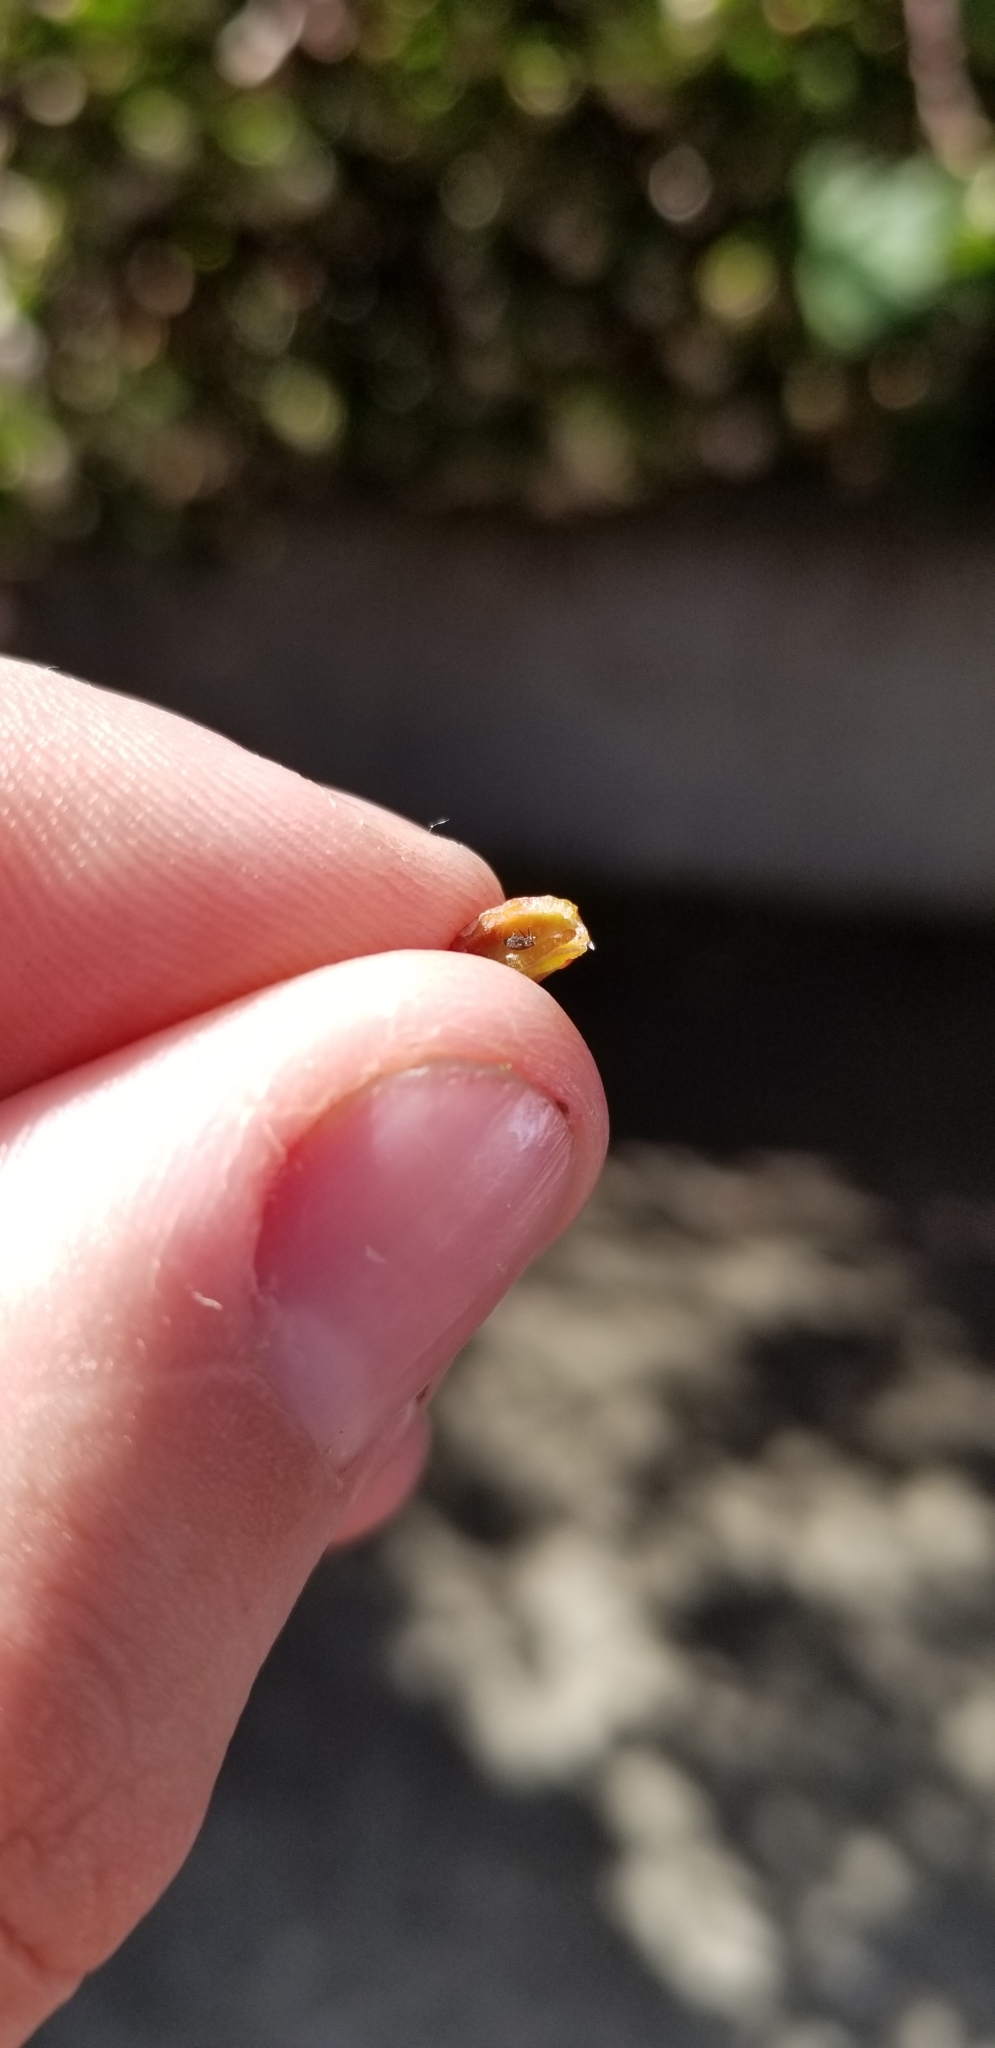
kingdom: Animalia
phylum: Arthropoda
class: Insecta
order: Hemiptera
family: Aphididae
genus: Tamalia
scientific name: Tamalia coweni
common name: Manzanita leafgall aphid
